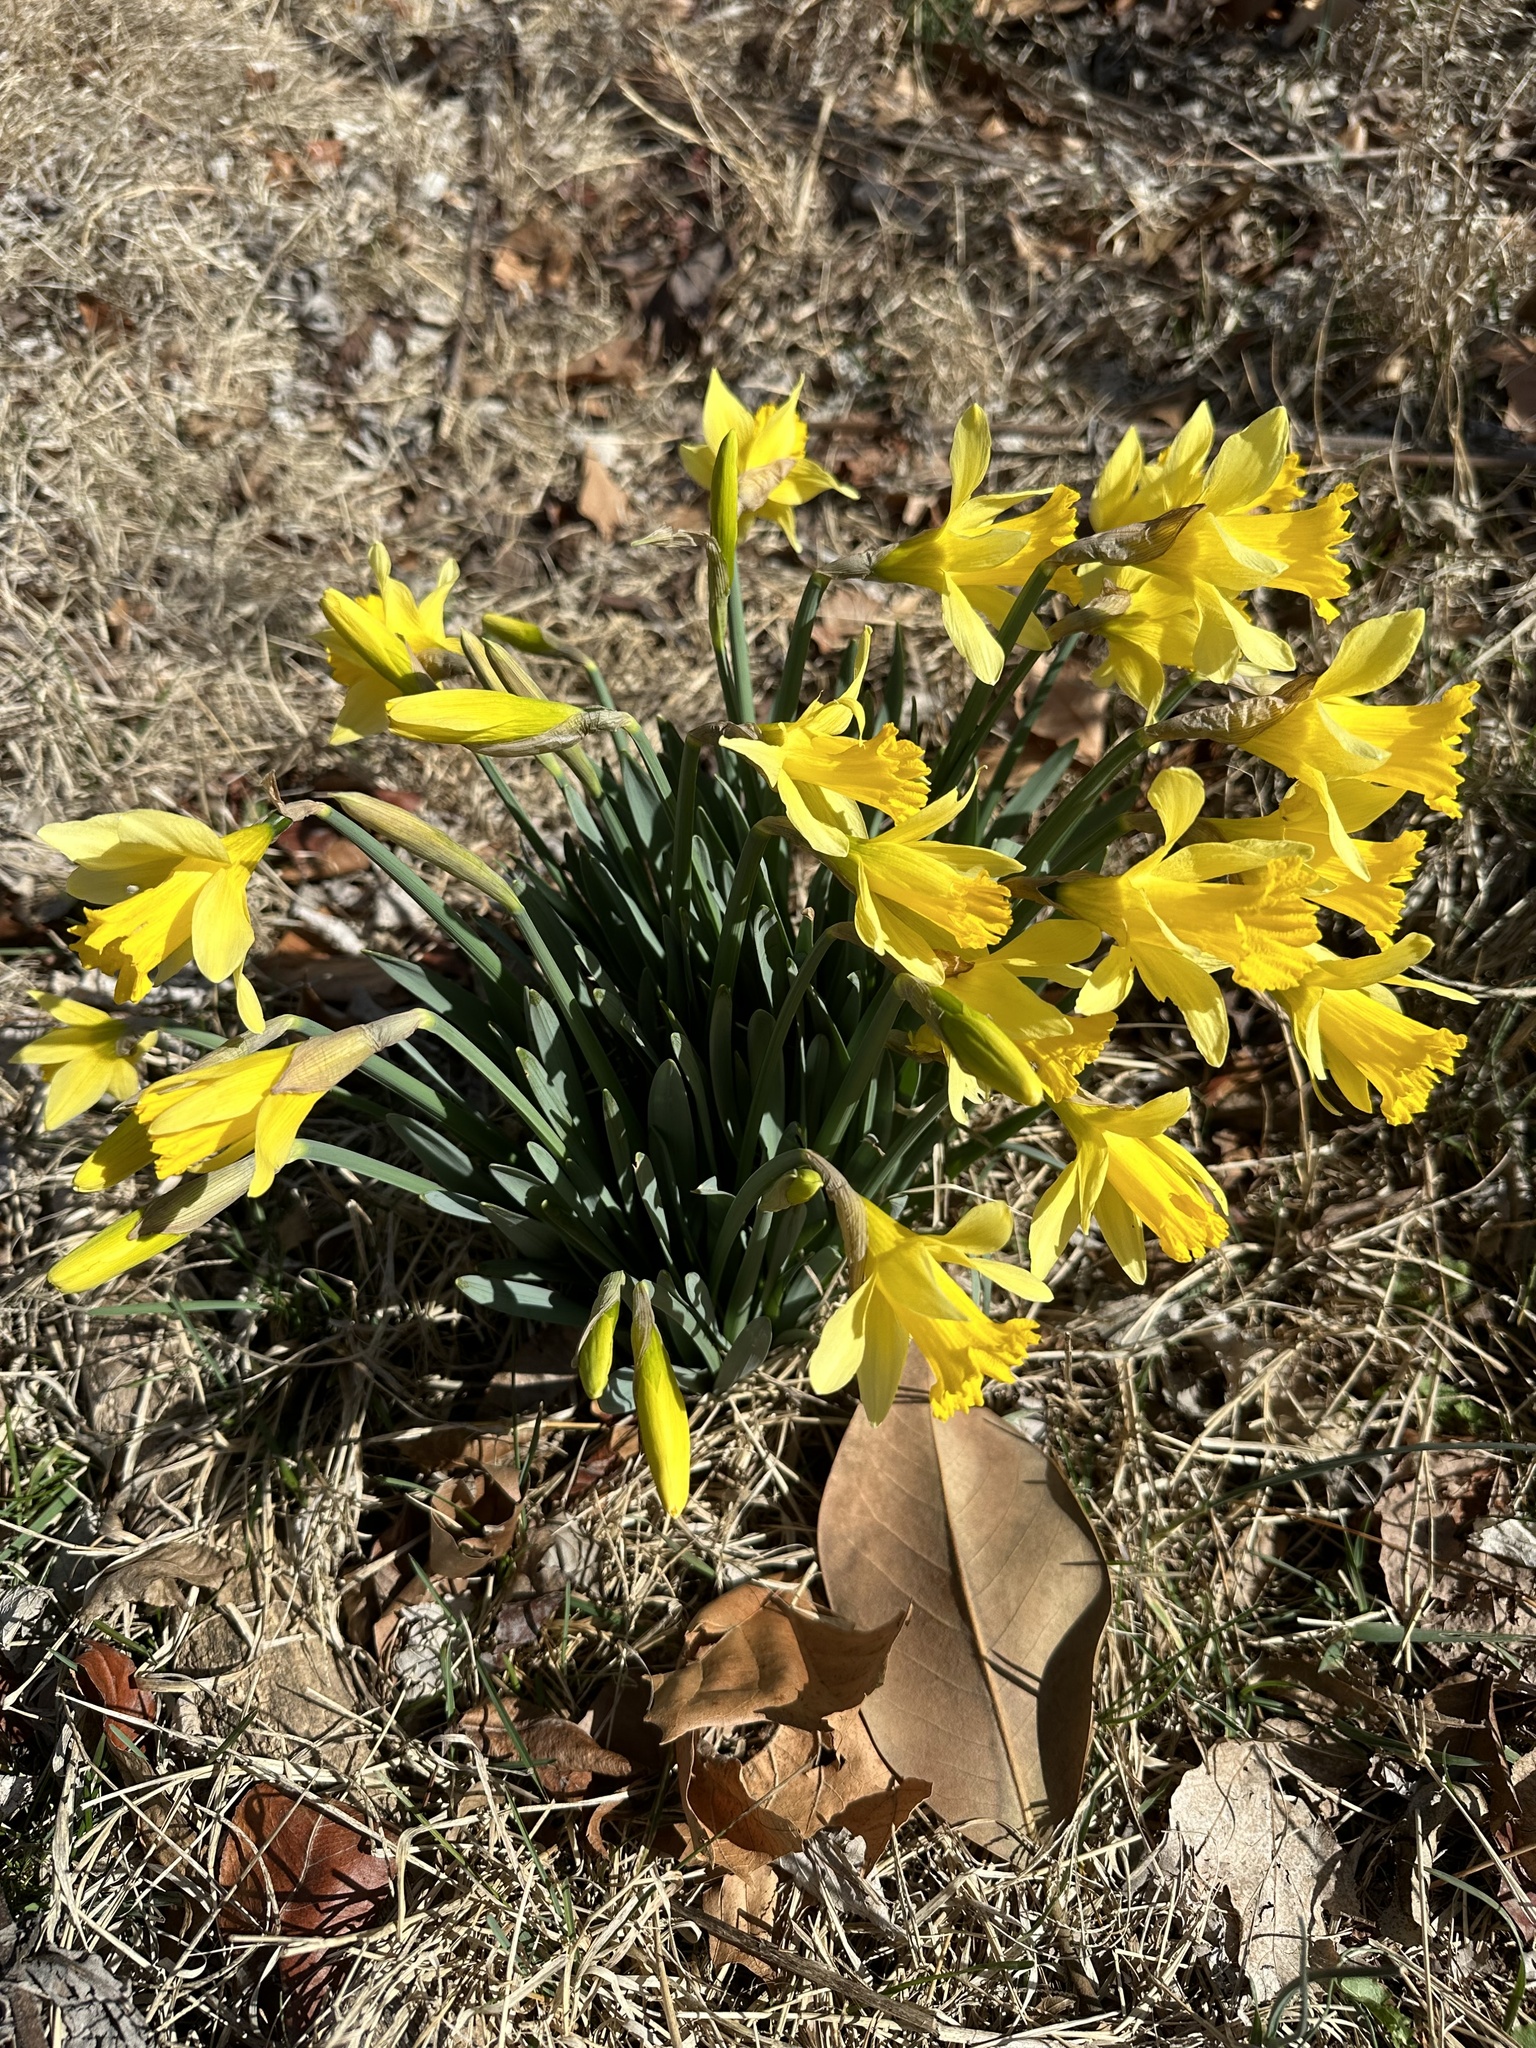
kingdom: Plantae
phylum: Tracheophyta
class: Liliopsida
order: Asparagales
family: Amaryllidaceae
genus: Narcissus
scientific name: Narcissus pseudonarcissus
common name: Daffodil
